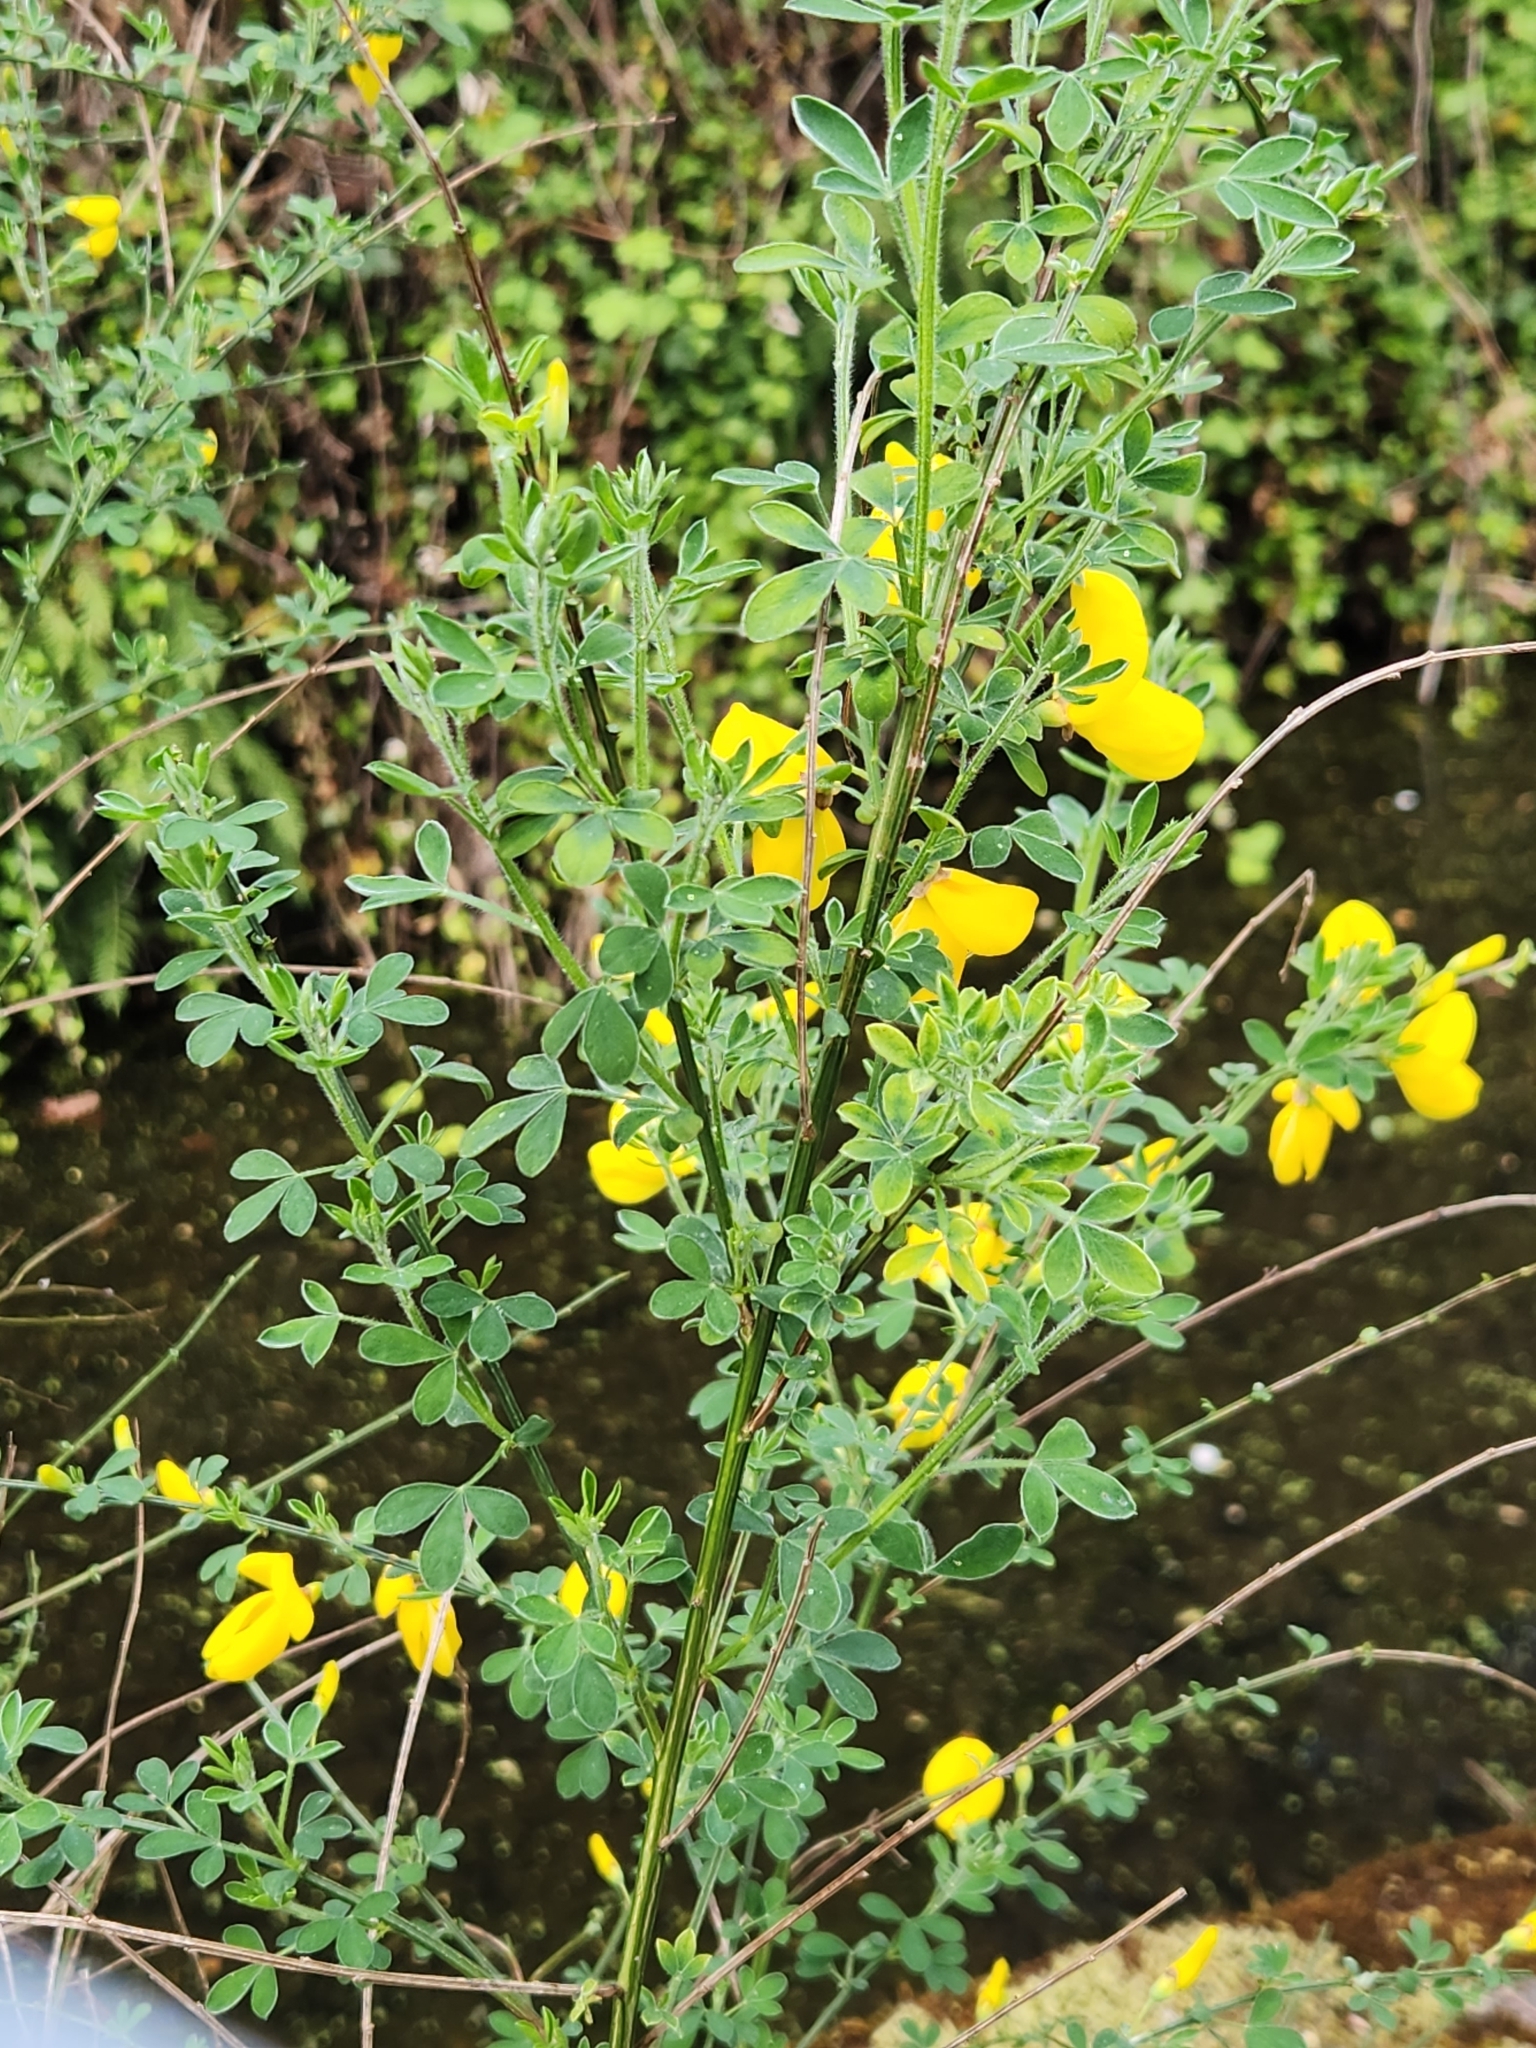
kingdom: Plantae
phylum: Tracheophyta
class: Magnoliopsida
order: Fabales
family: Fabaceae
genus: Cytisus
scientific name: Cytisus scoparius
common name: Scotch broom
